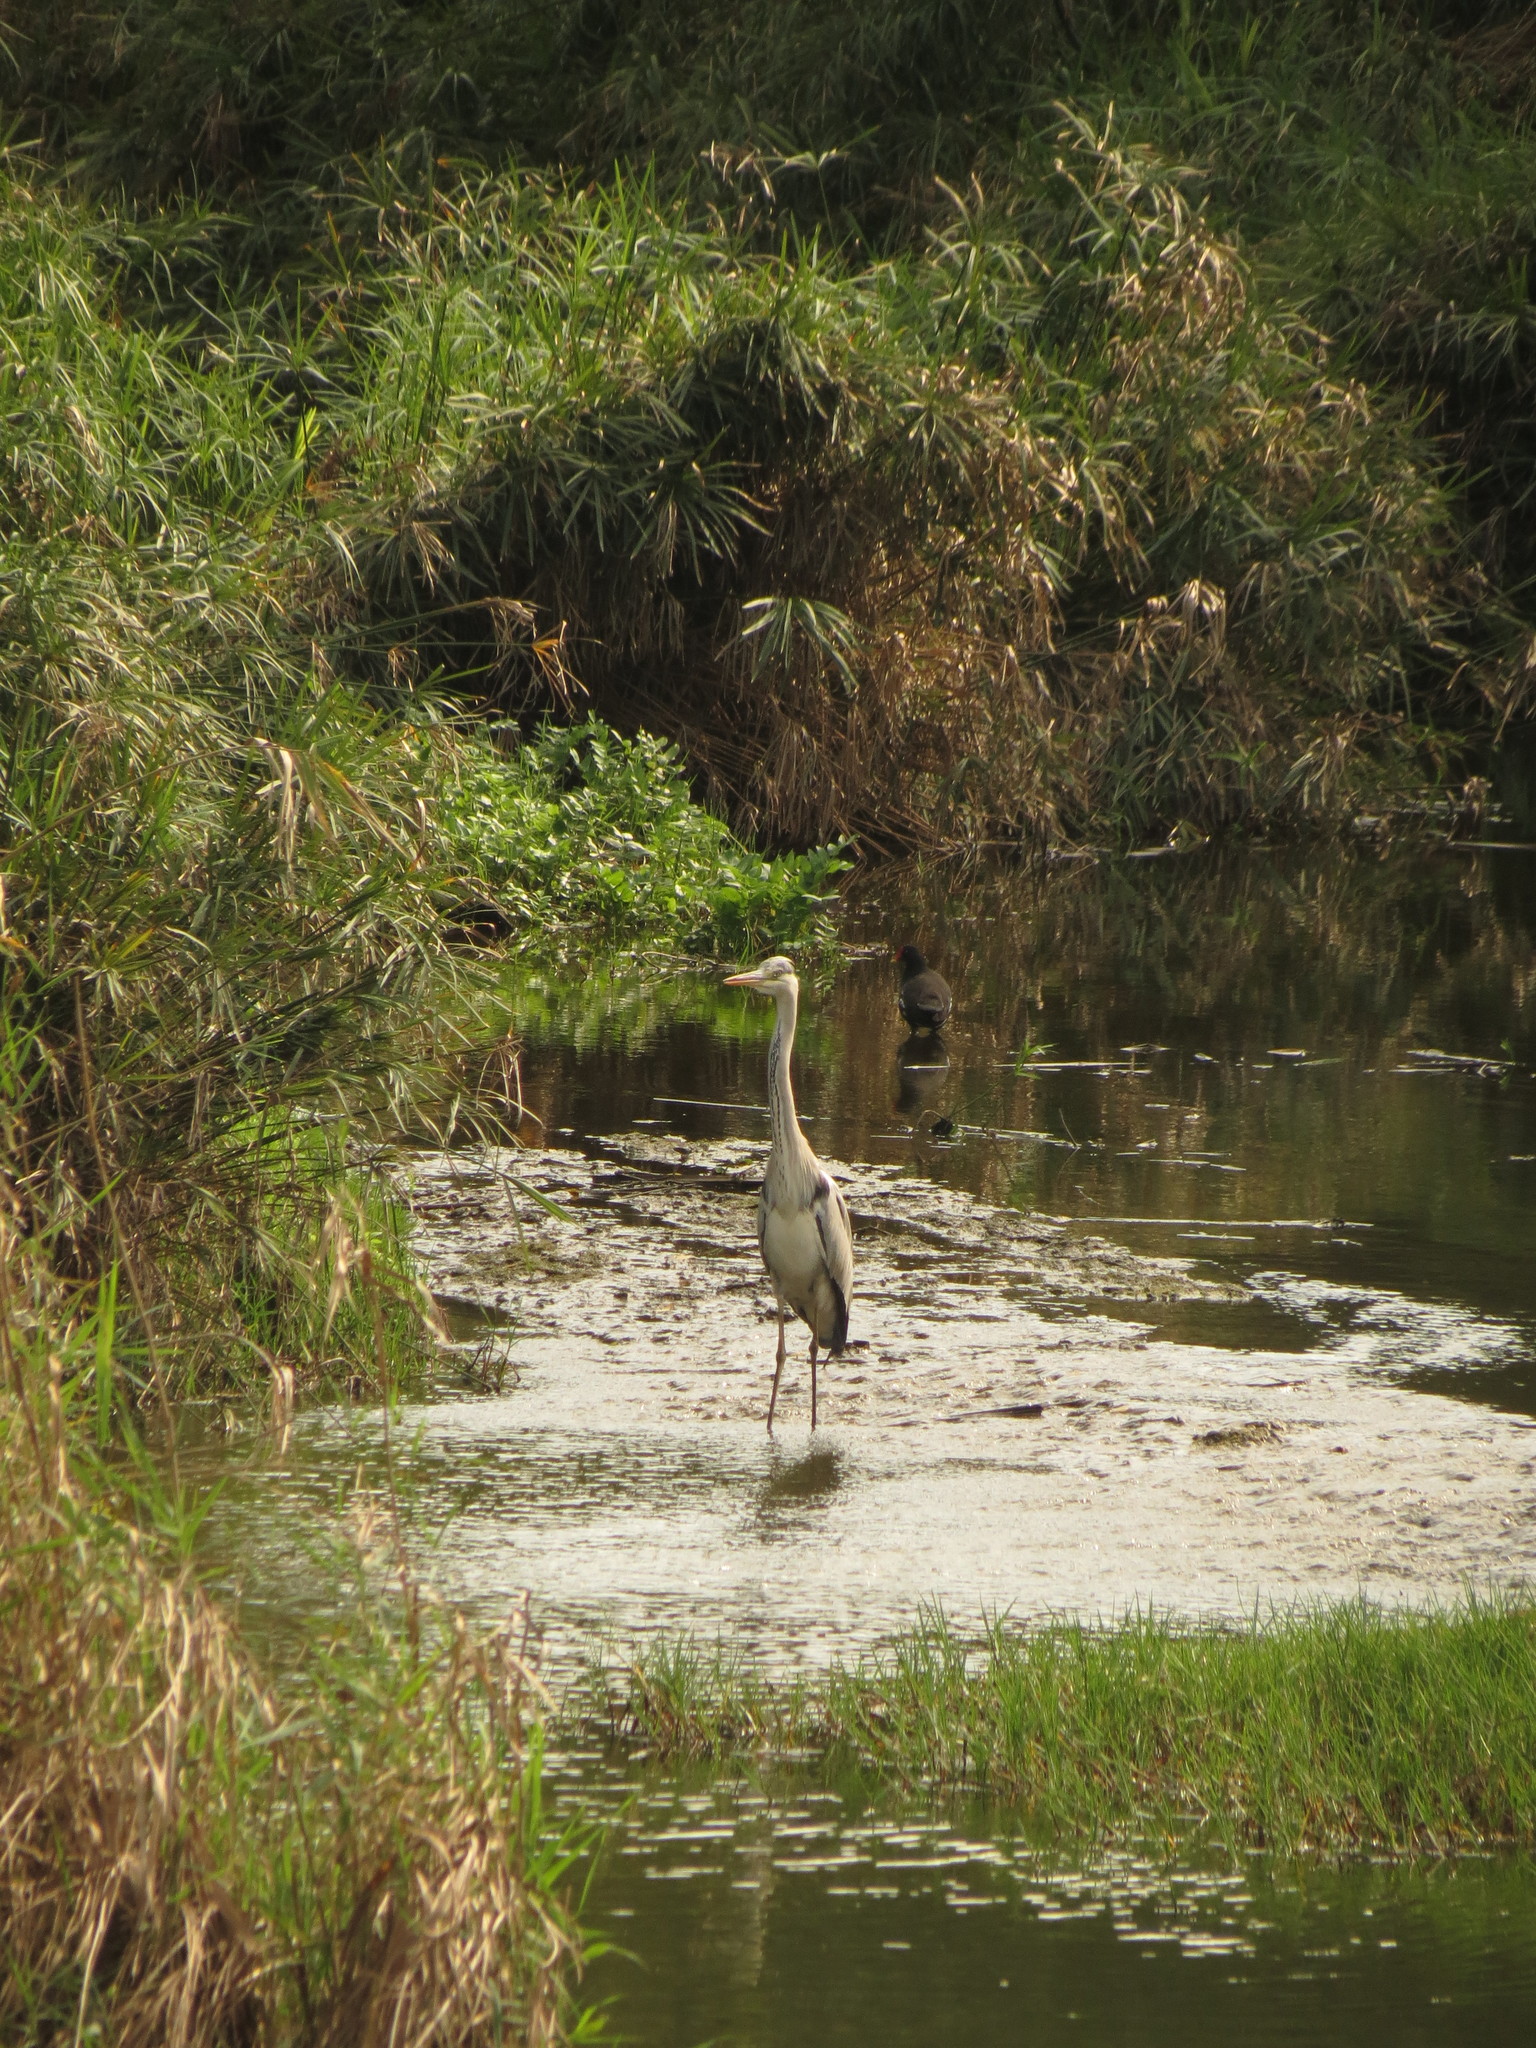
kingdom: Animalia
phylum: Chordata
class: Aves
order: Pelecaniformes
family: Ardeidae
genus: Ardea
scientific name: Ardea cinerea
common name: Grey heron
